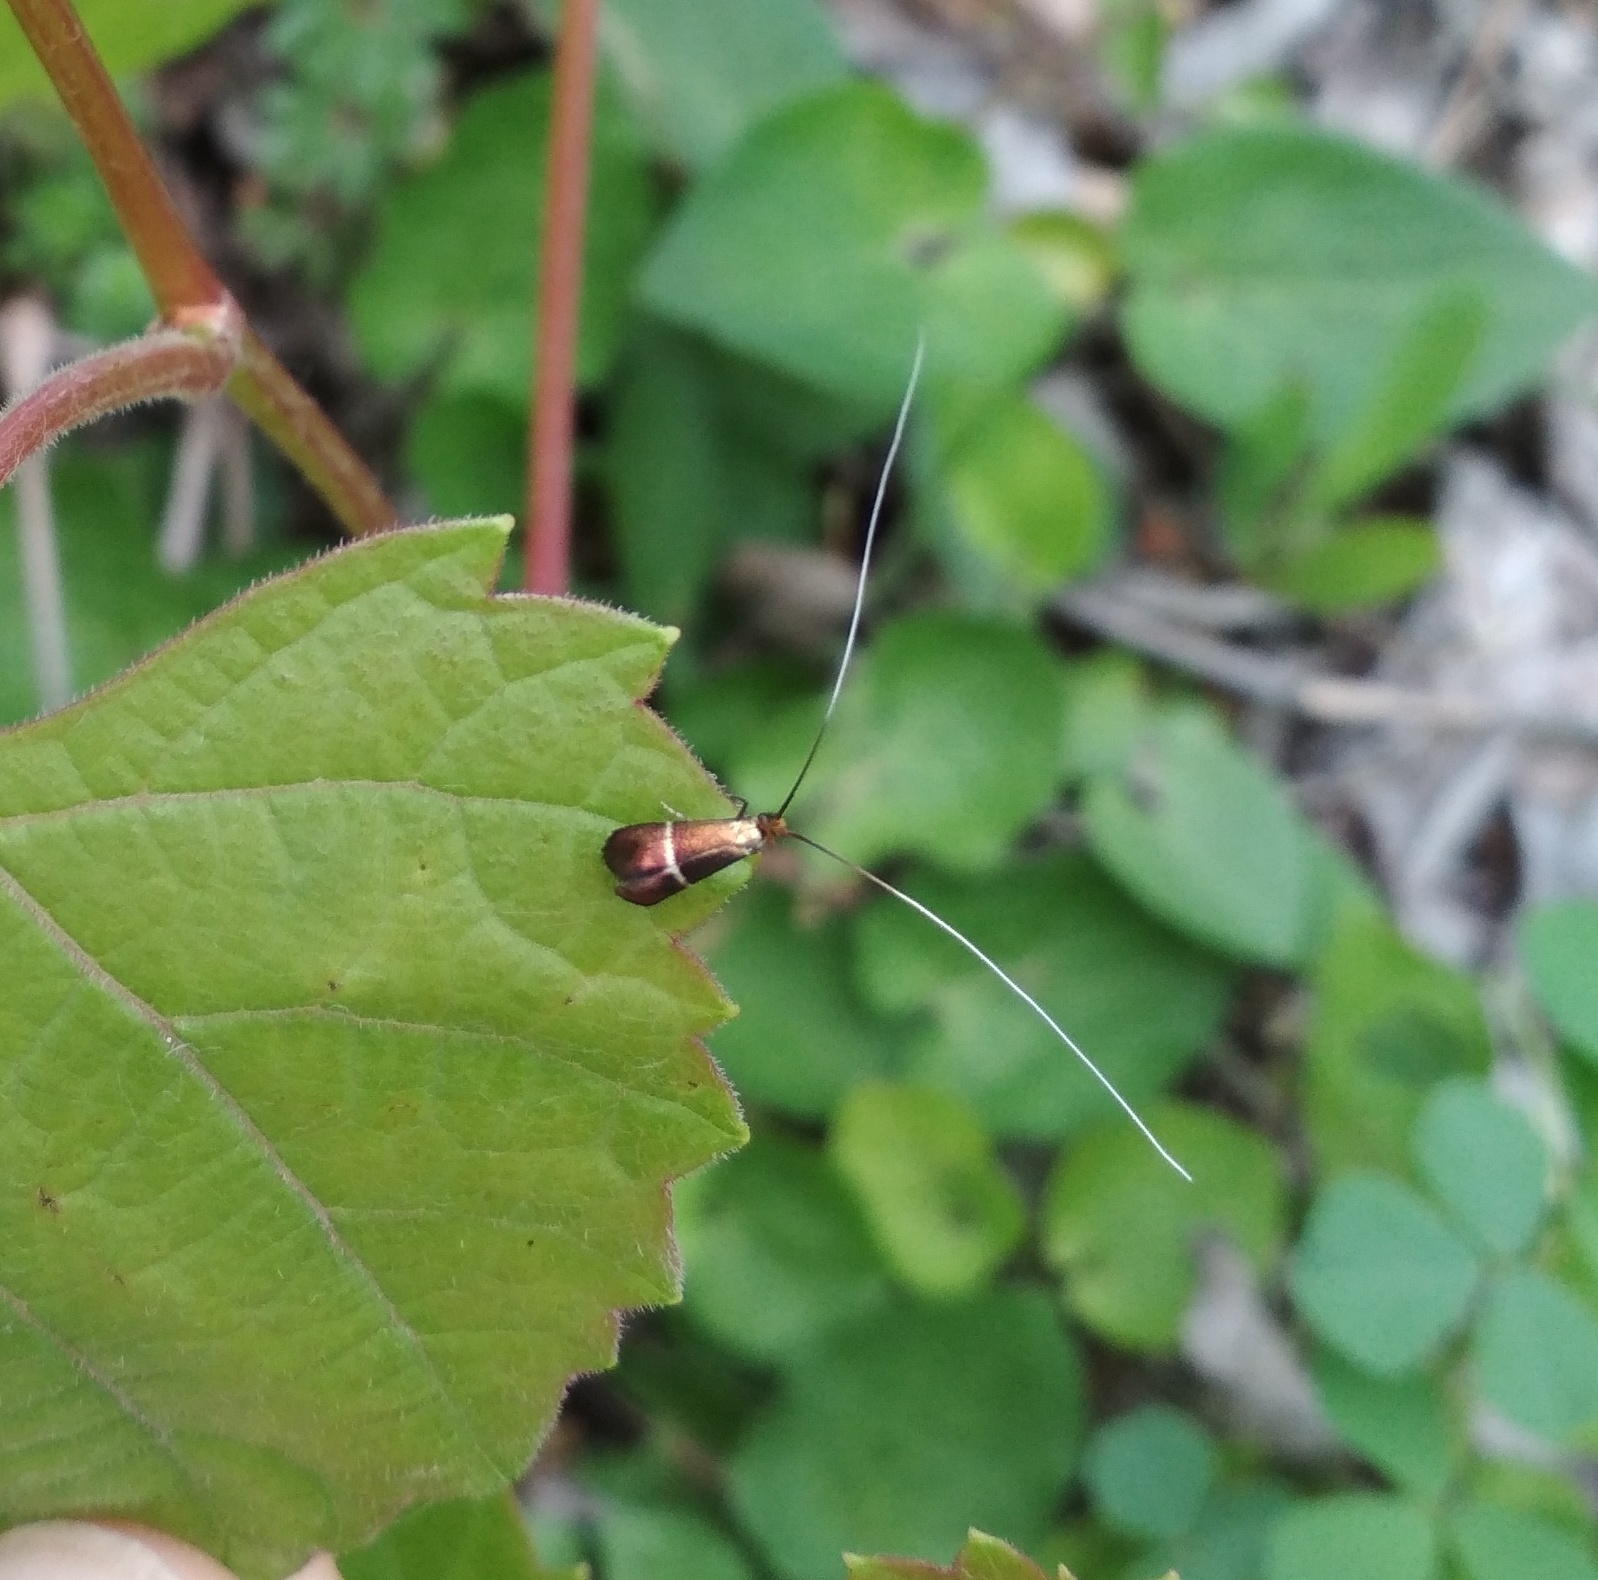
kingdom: Animalia
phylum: Arthropoda
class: Insecta
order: Lepidoptera
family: Adelidae
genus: Adela
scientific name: Adela australis
